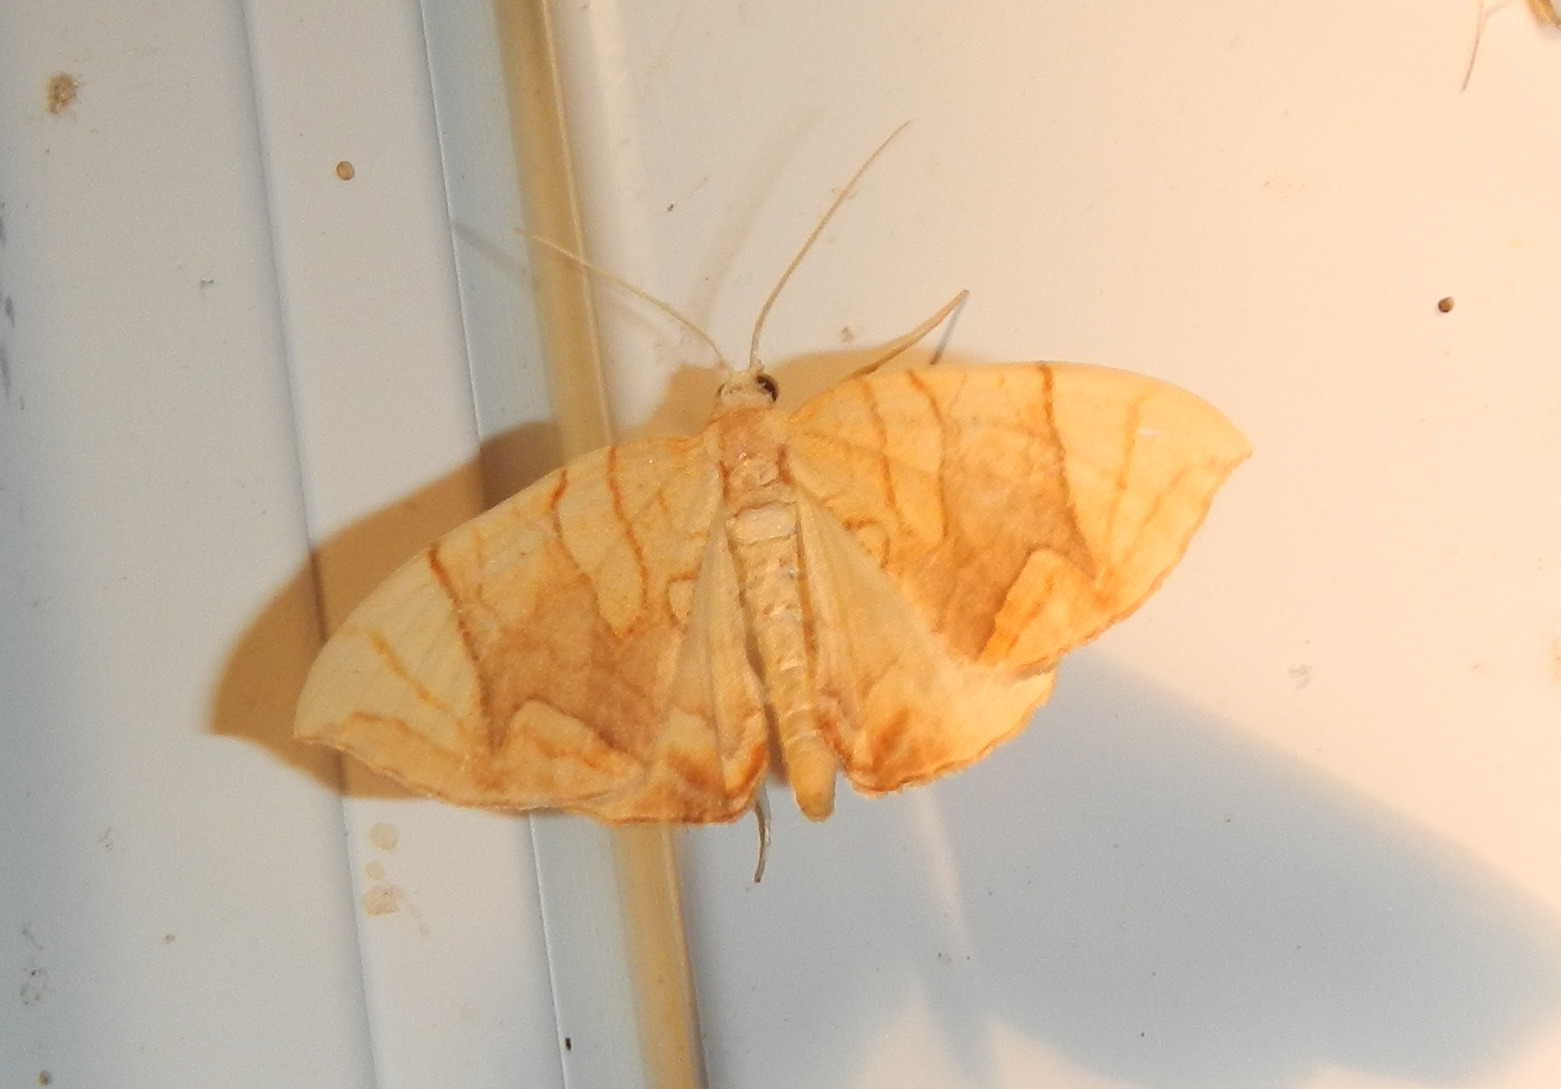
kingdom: Animalia
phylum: Arthropoda
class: Insecta
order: Lepidoptera
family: Geometridae
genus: Eulithis
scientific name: Eulithis
